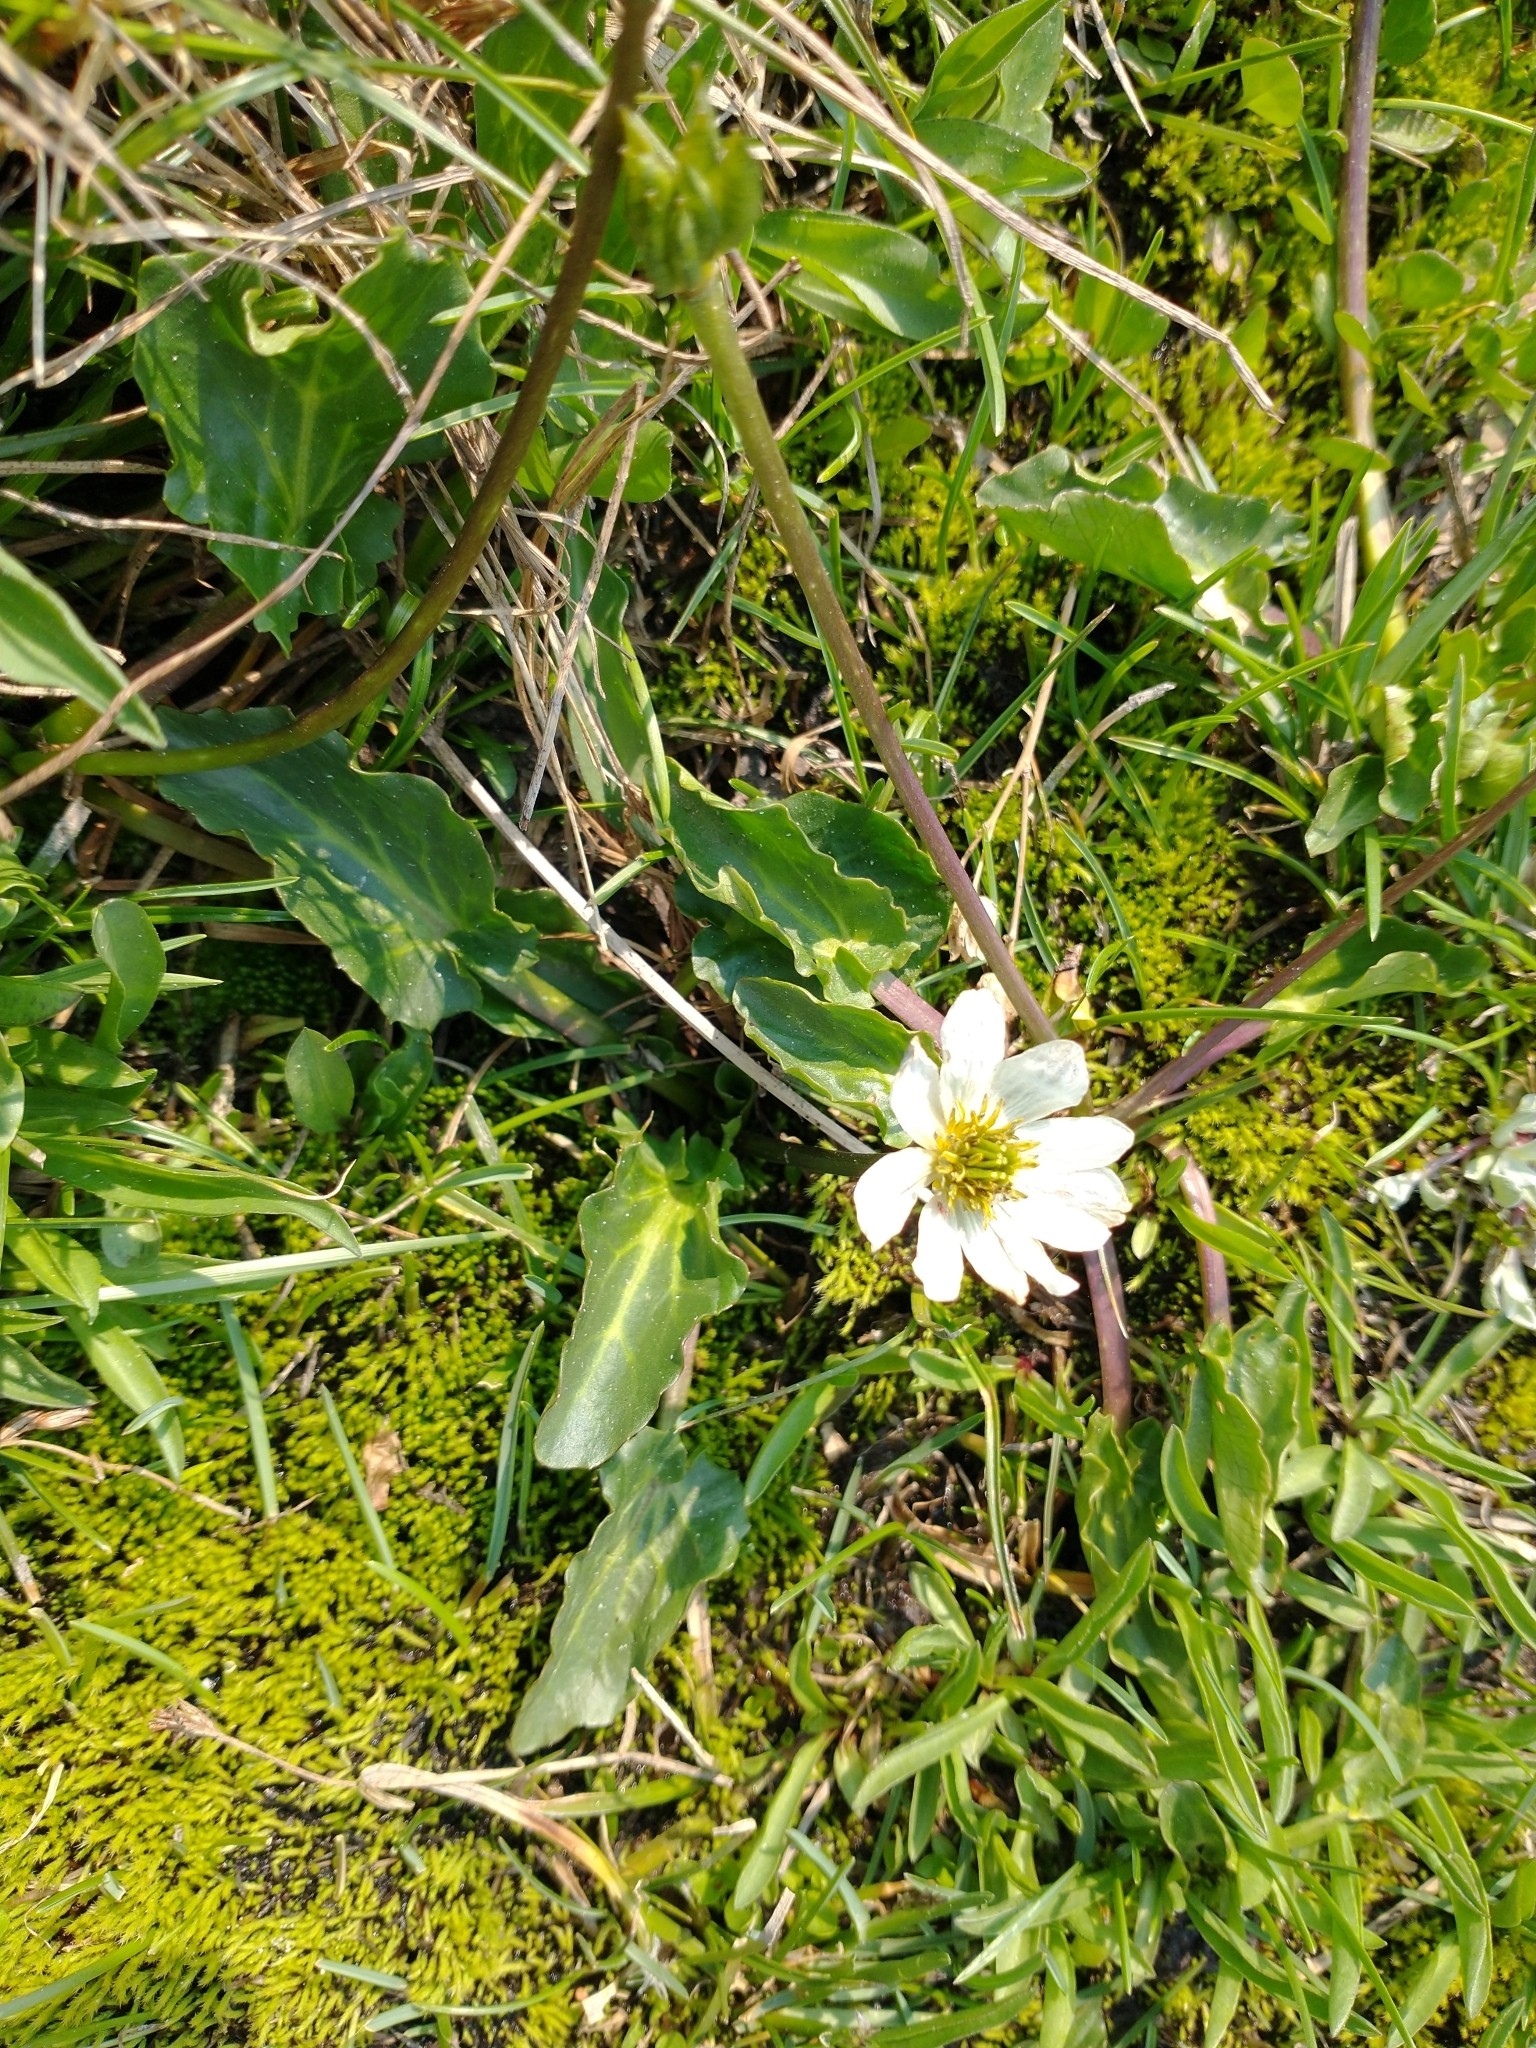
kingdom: Plantae
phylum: Tracheophyta
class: Magnoliopsida
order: Ranunculales
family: Ranunculaceae
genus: Caltha
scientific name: Caltha leptosepala
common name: Elkslip
